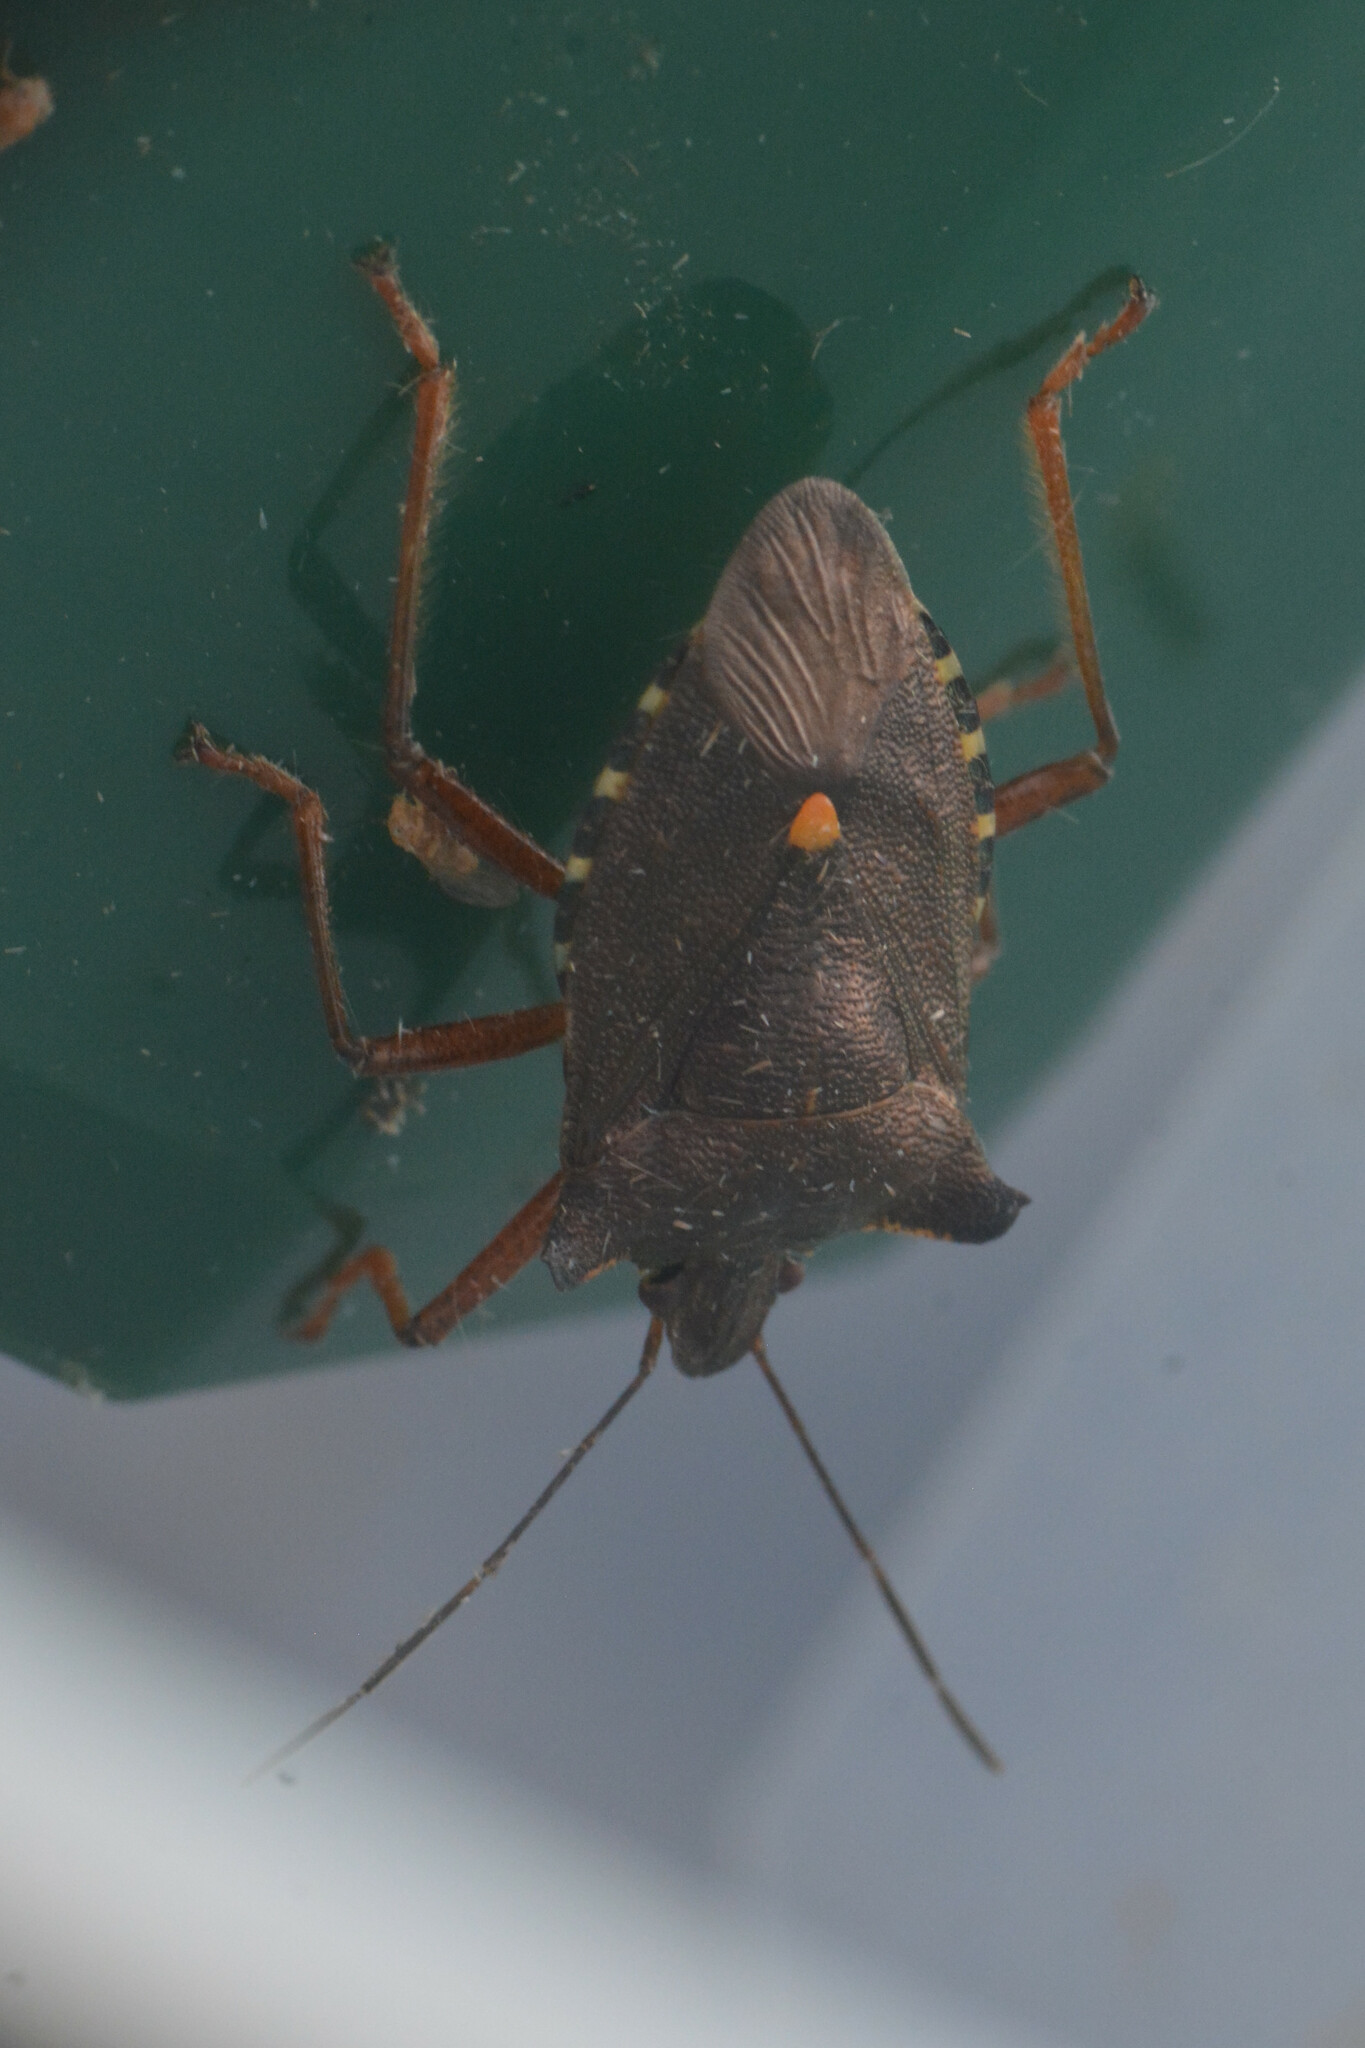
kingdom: Animalia
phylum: Arthropoda
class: Insecta
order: Hemiptera
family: Pentatomidae
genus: Pentatoma
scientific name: Pentatoma rufipes
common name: Forest bug
